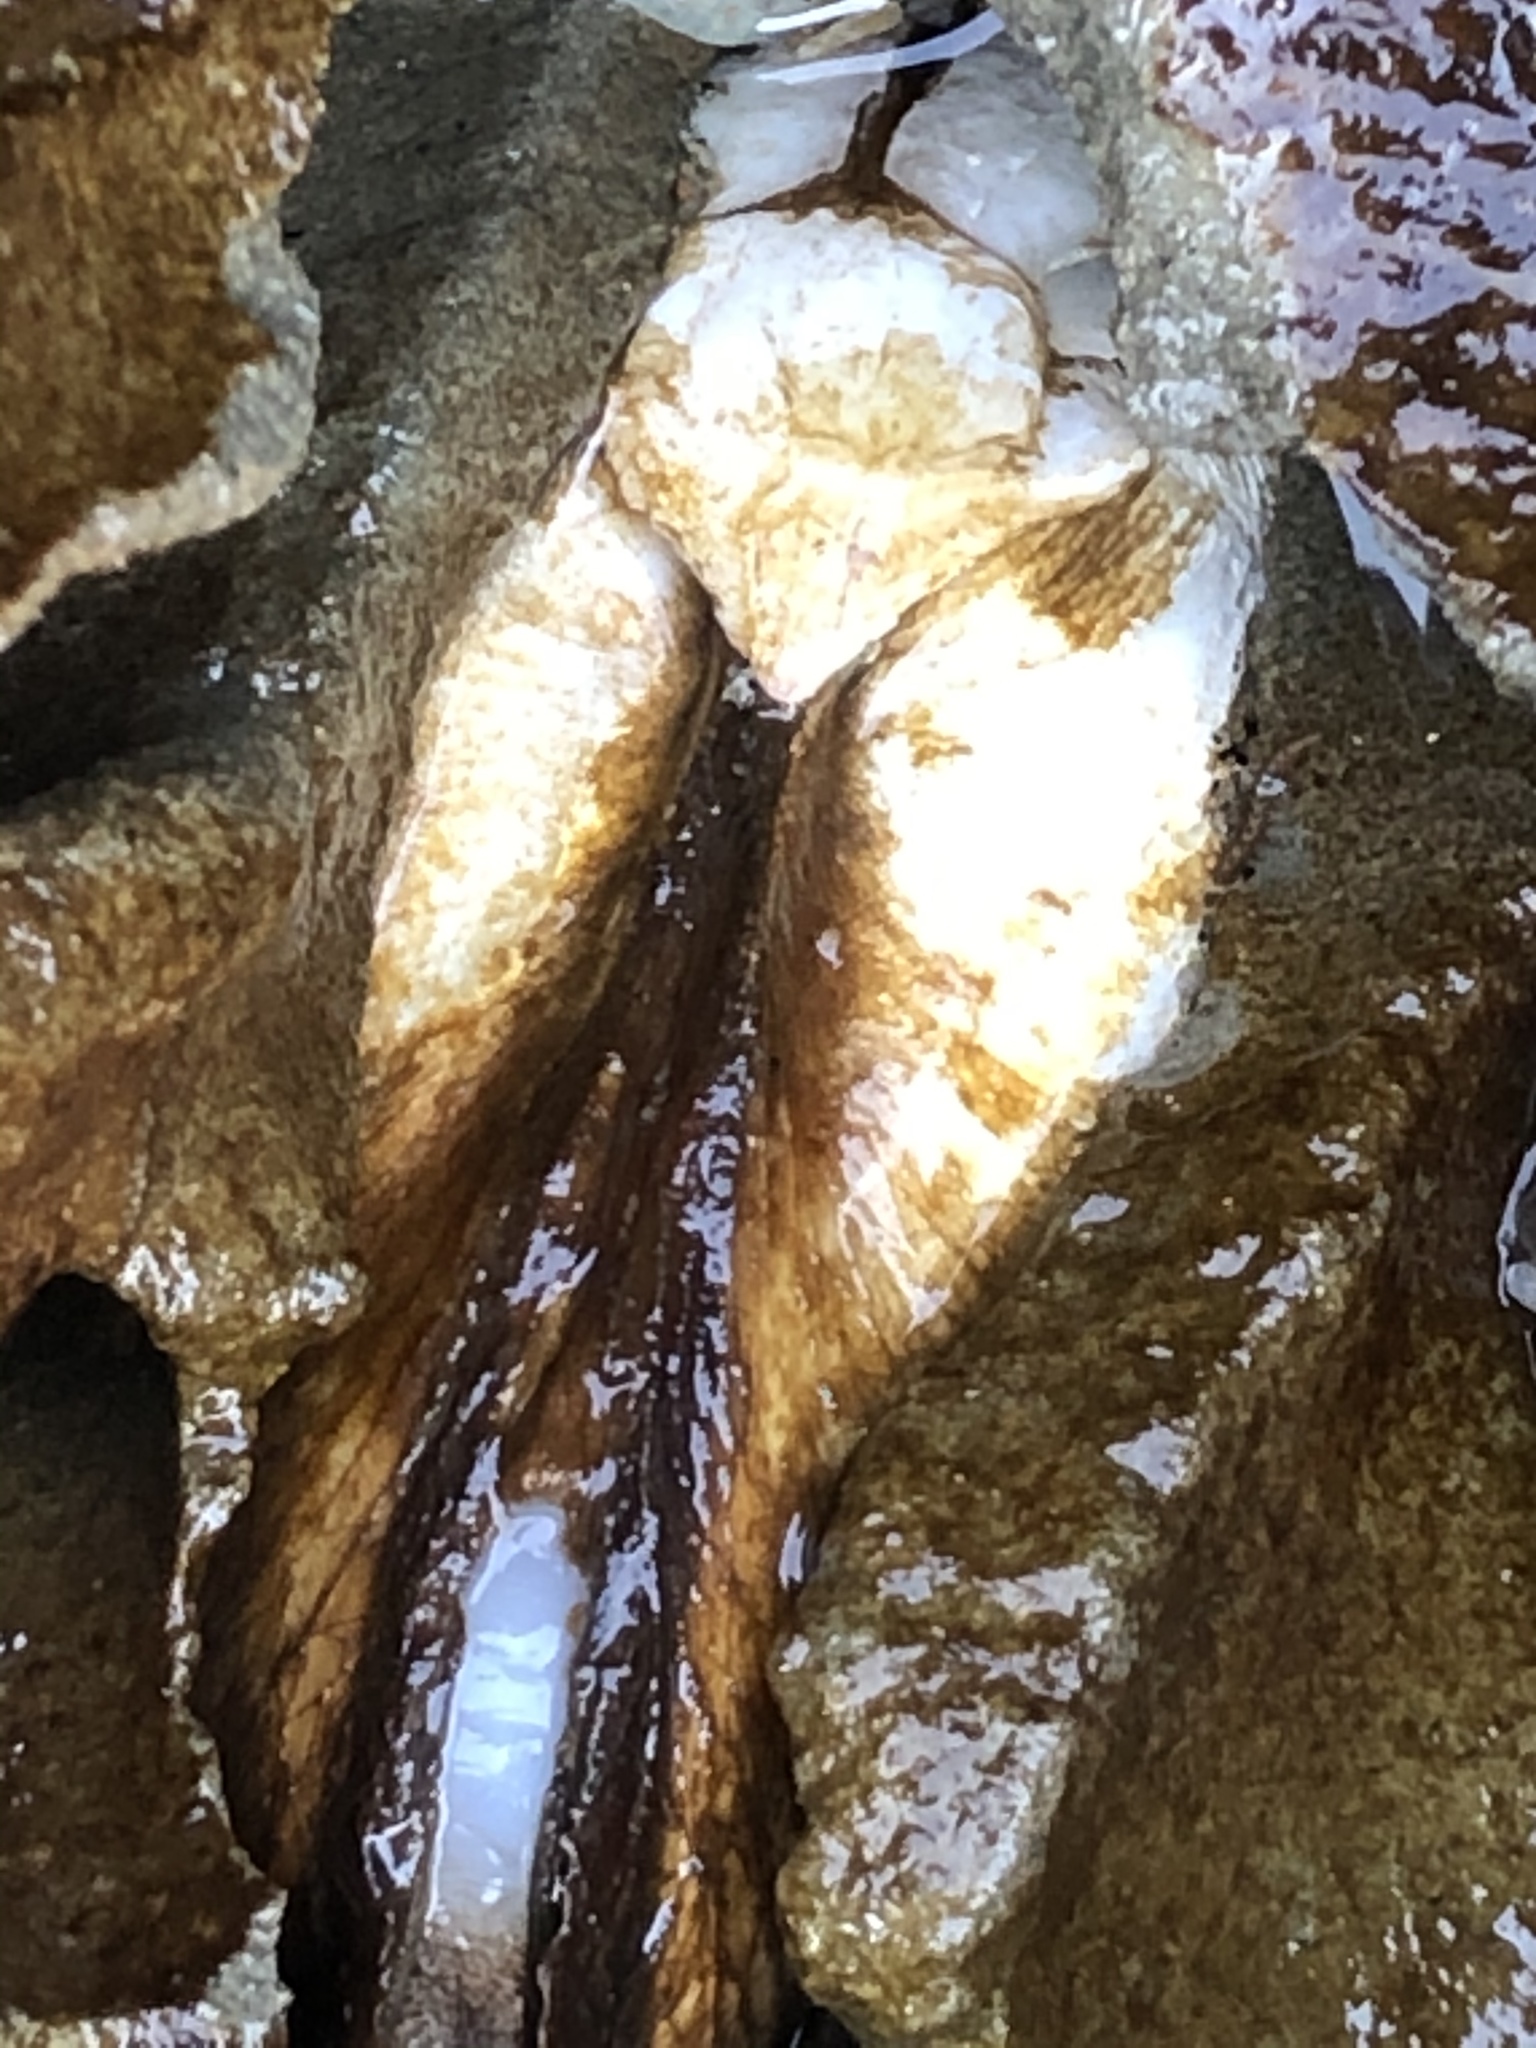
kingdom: Animalia
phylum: Mollusca
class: Bivalvia
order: Myida
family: Pholadidae
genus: Parapholas
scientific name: Parapholas californica
